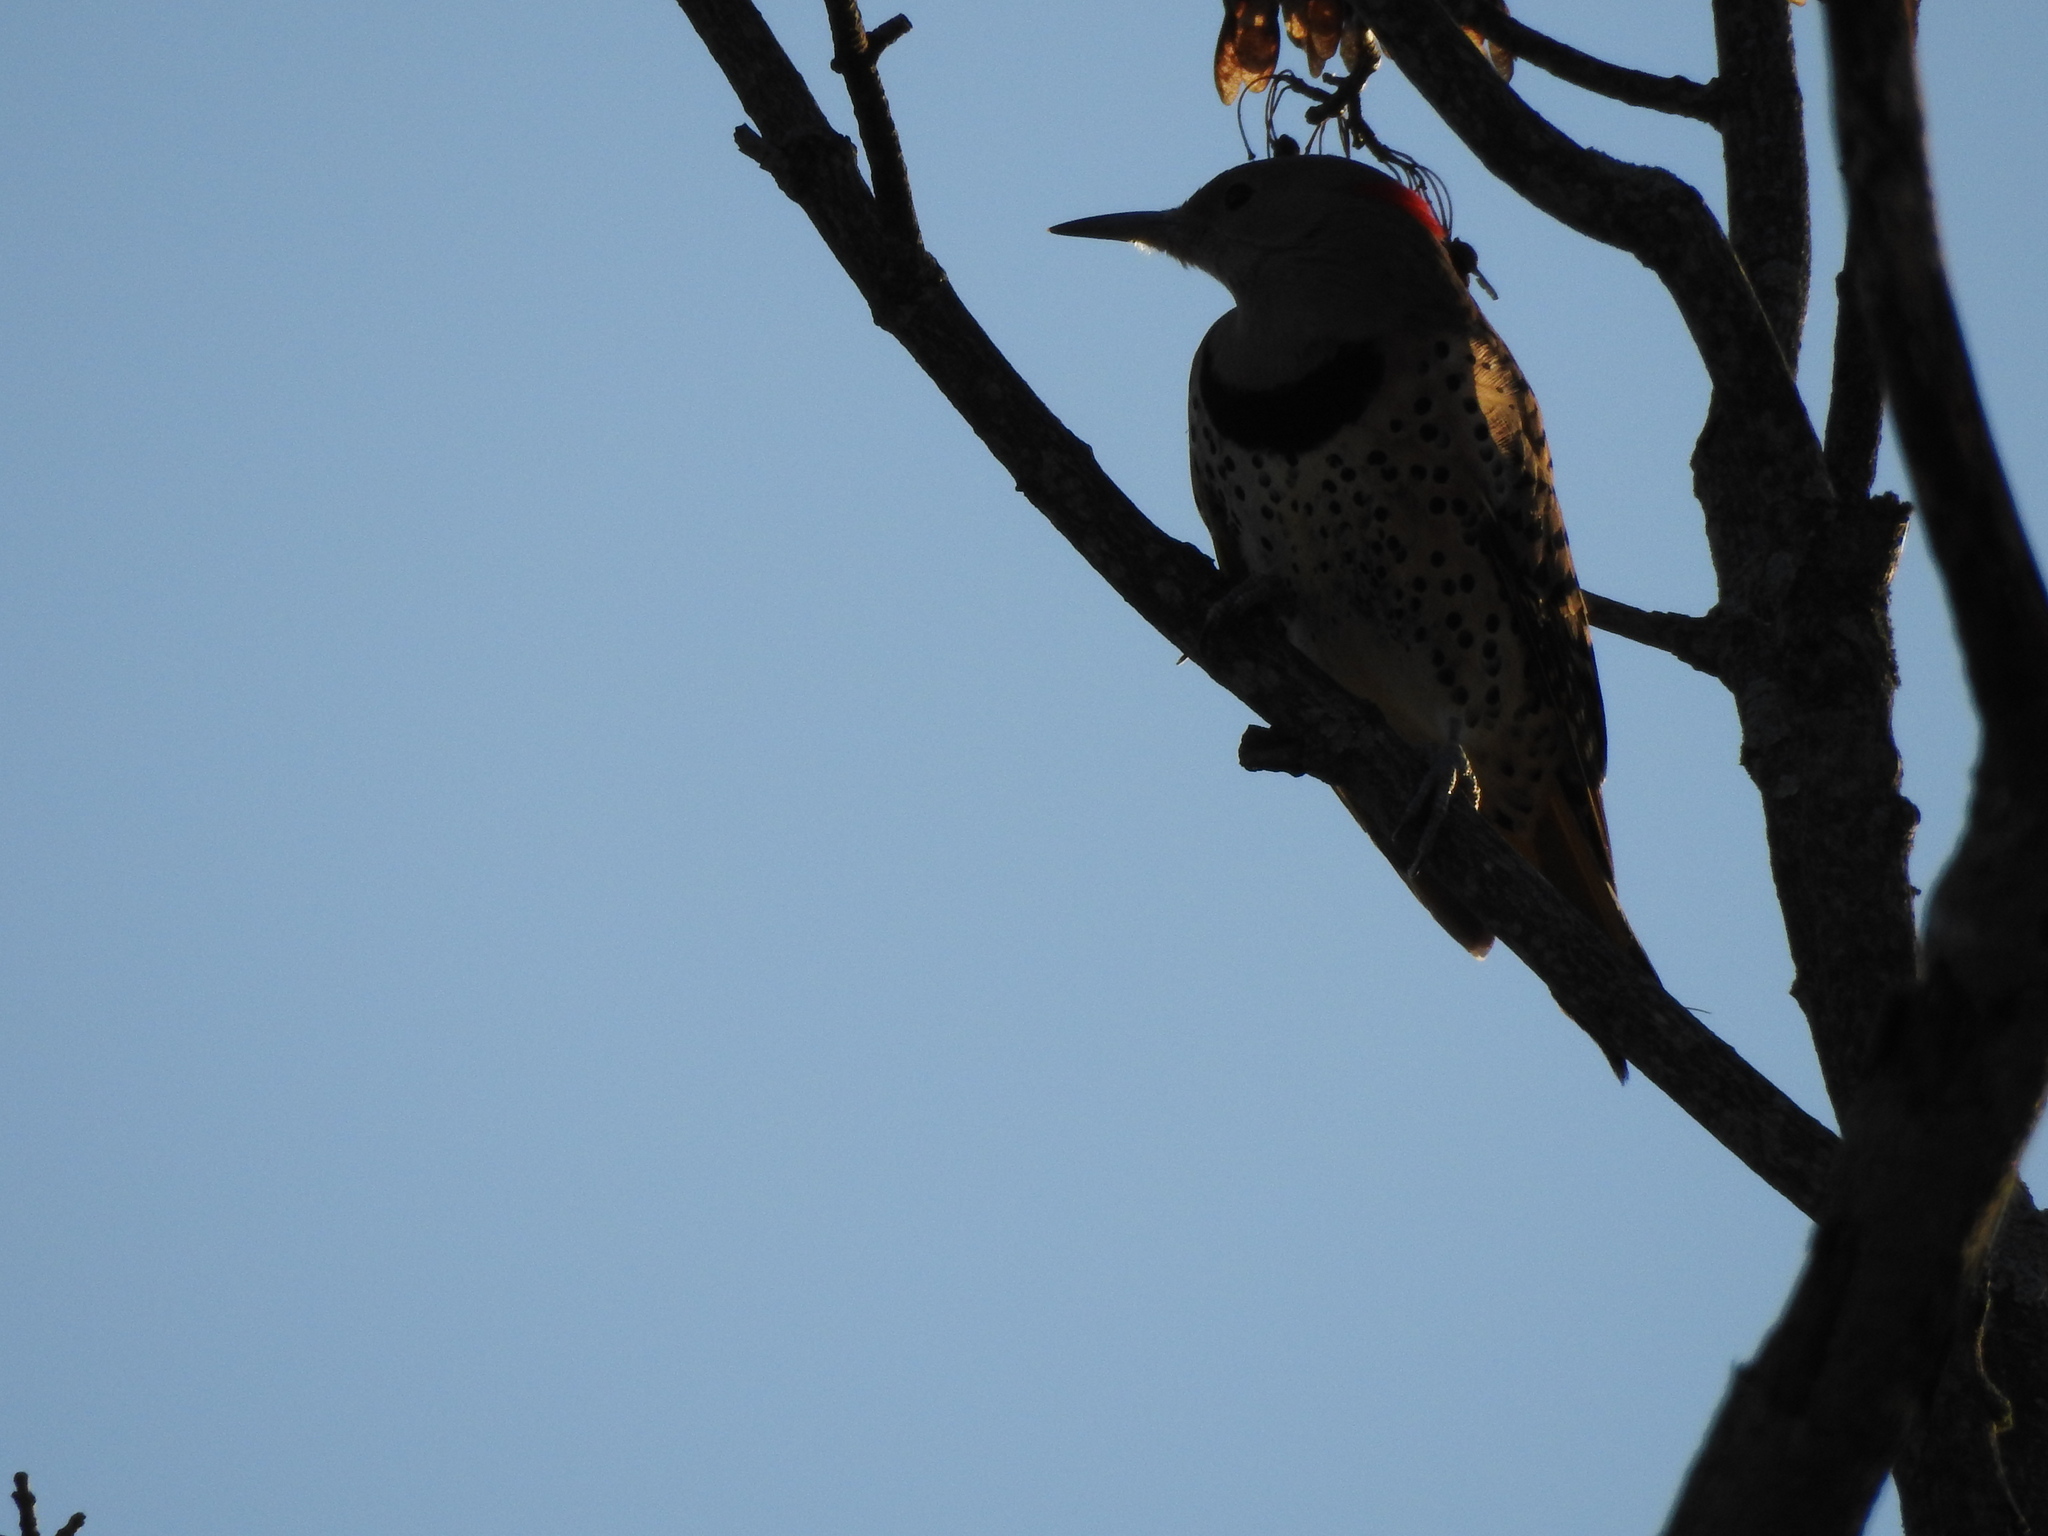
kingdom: Animalia
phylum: Chordata
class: Aves
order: Piciformes
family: Picidae
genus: Colaptes
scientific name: Colaptes auratus
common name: Northern flicker
